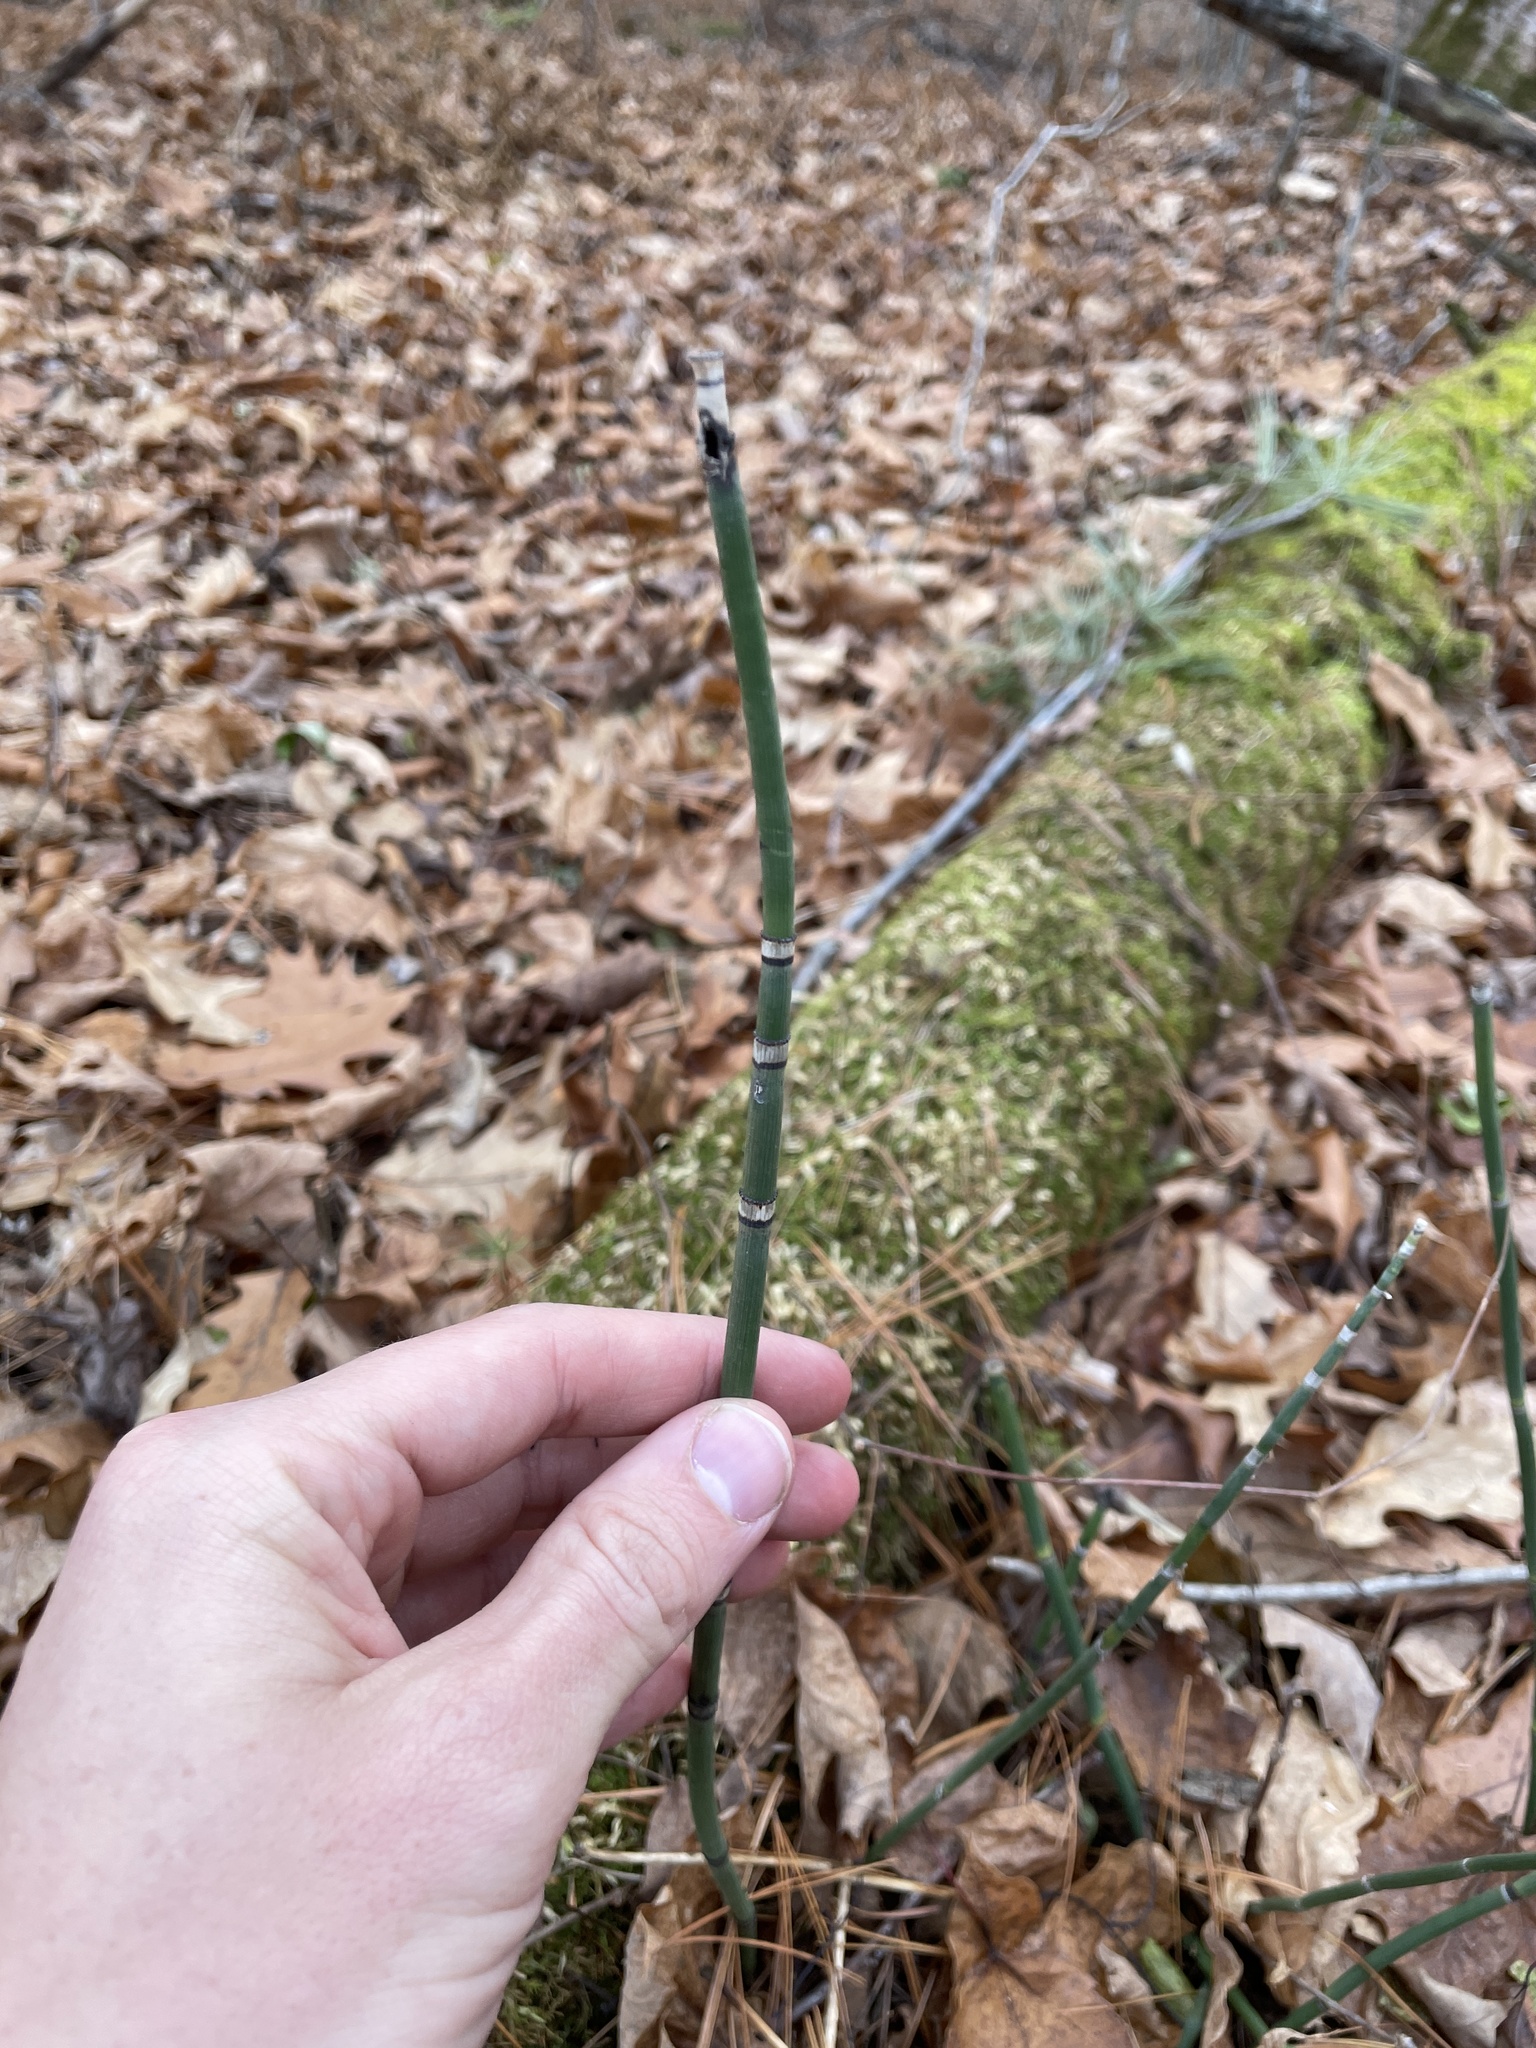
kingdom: Plantae
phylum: Tracheophyta
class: Polypodiopsida
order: Equisetales
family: Equisetaceae
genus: Equisetum
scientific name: Equisetum praealtum
